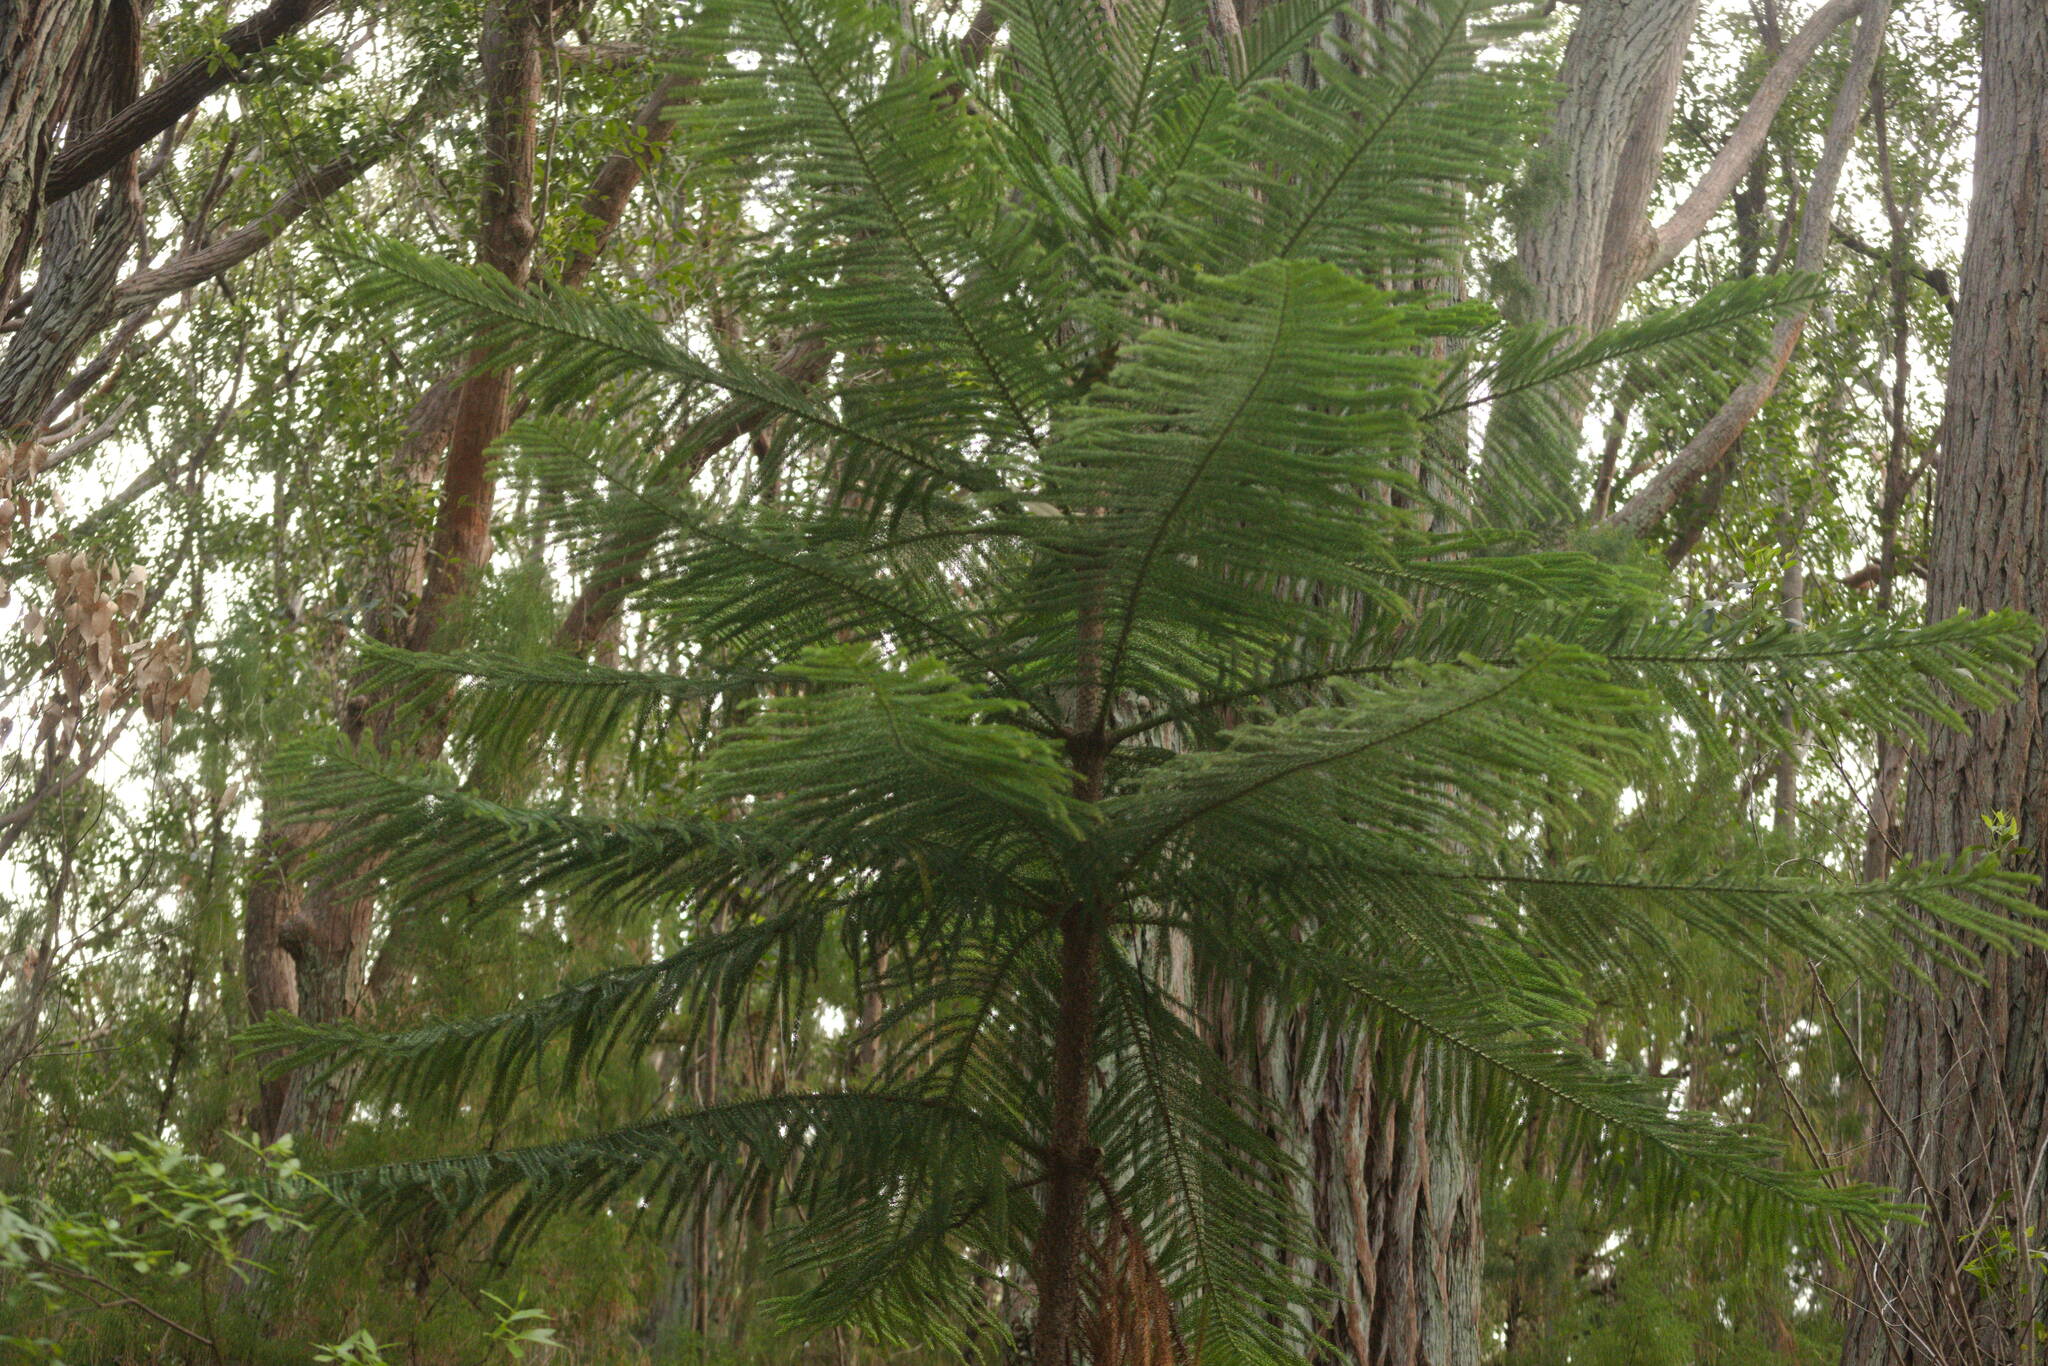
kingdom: Plantae
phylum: Tracheophyta
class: Pinopsida
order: Pinales
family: Araucariaceae
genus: Araucaria
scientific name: Araucaria columnaris
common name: Coral reef araucaria
